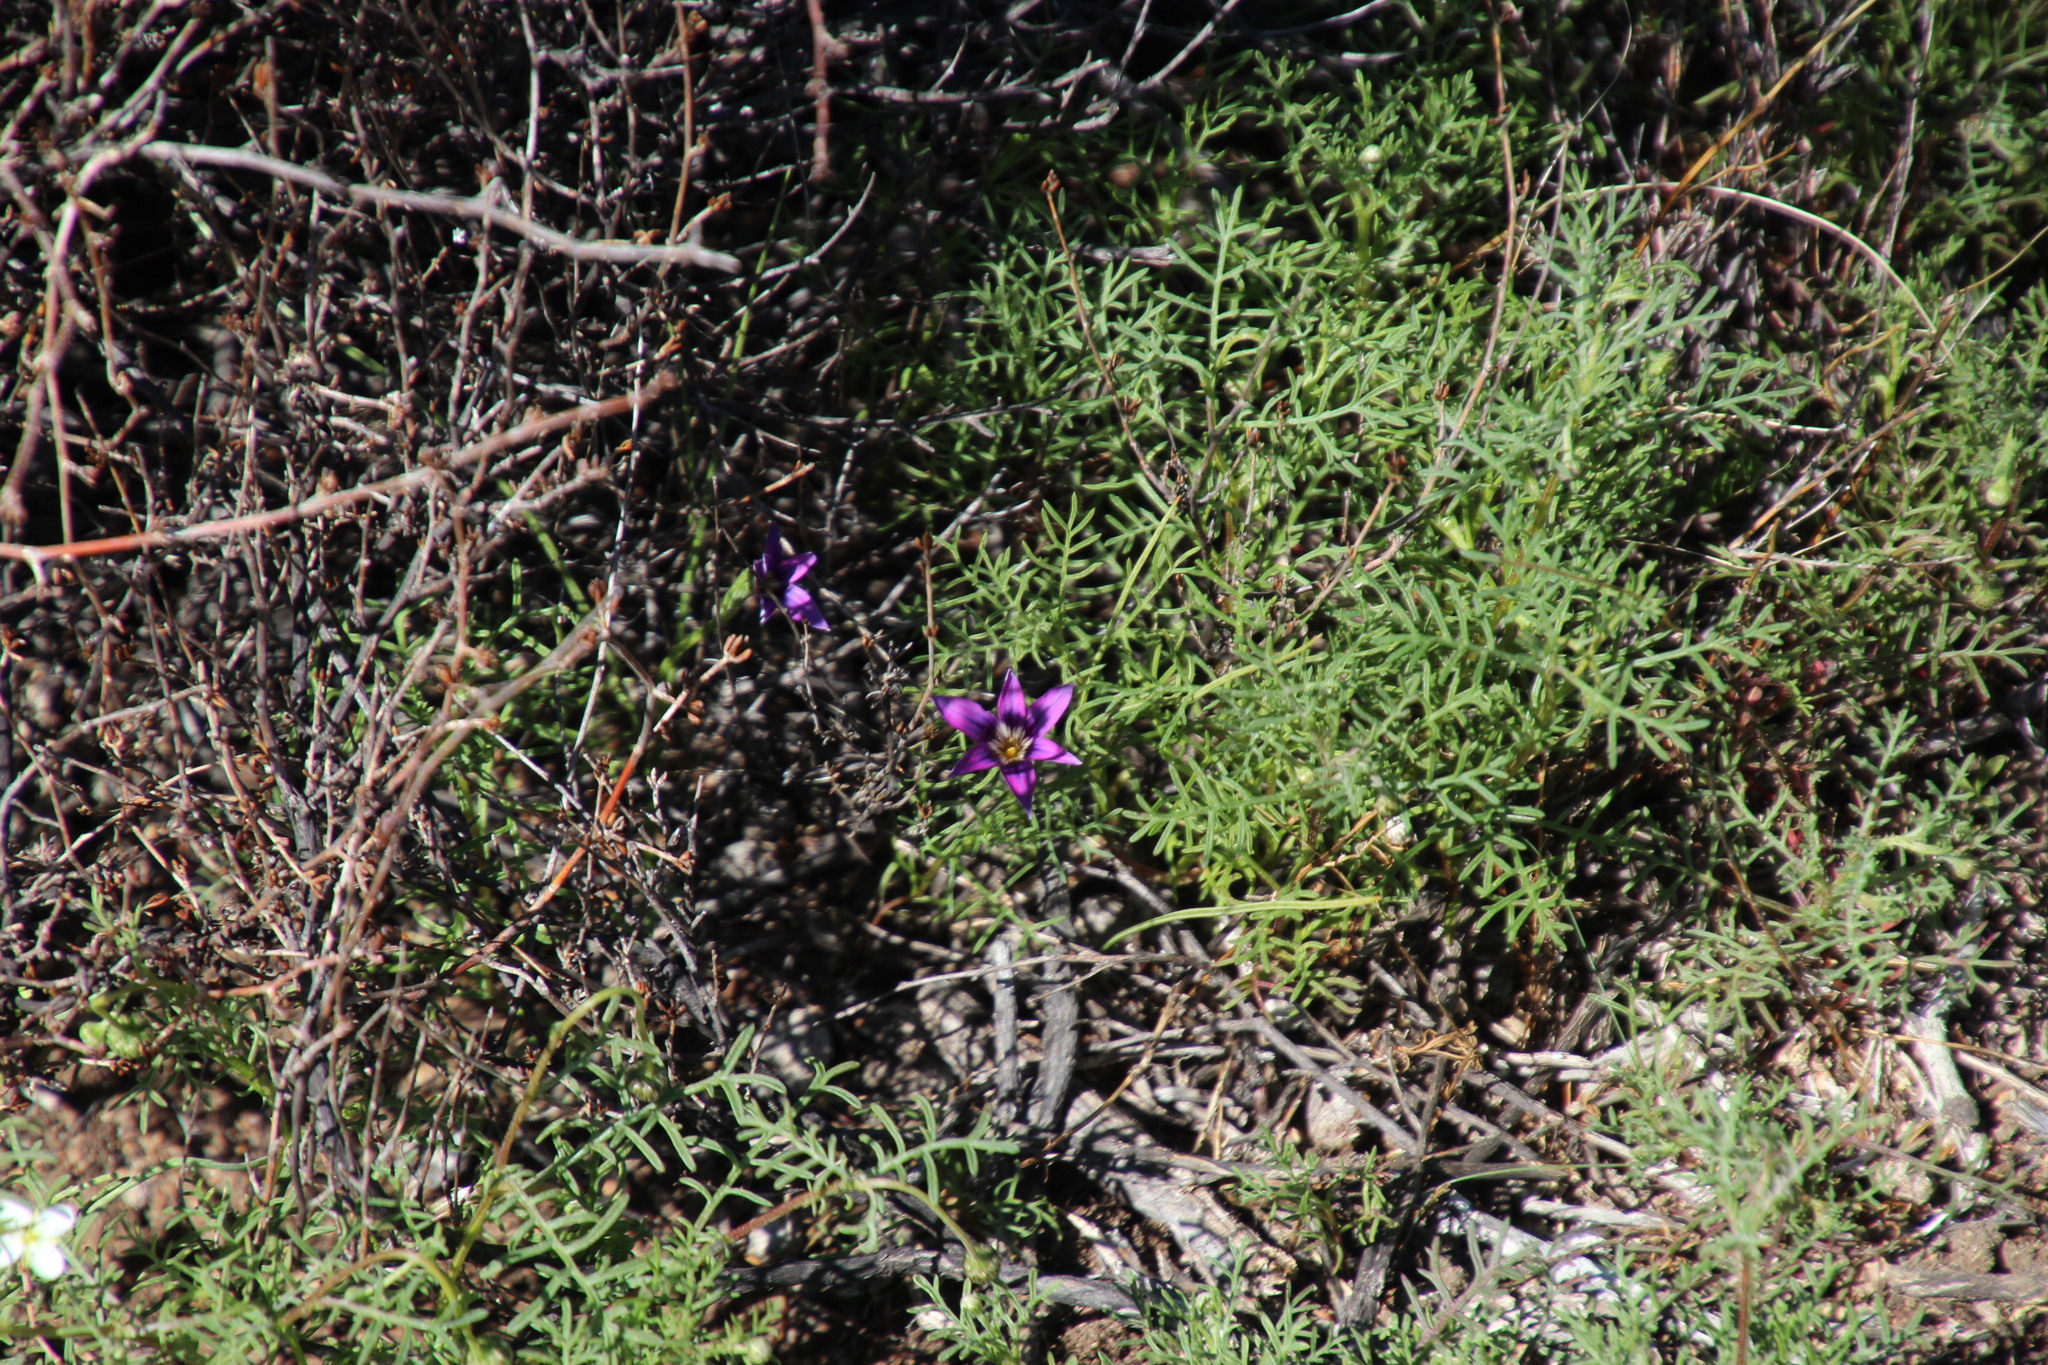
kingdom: Plantae
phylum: Tracheophyta
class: Liliopsida
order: Asparagales
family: Iridaceae
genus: Romulea
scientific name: Romulea kamisensis
